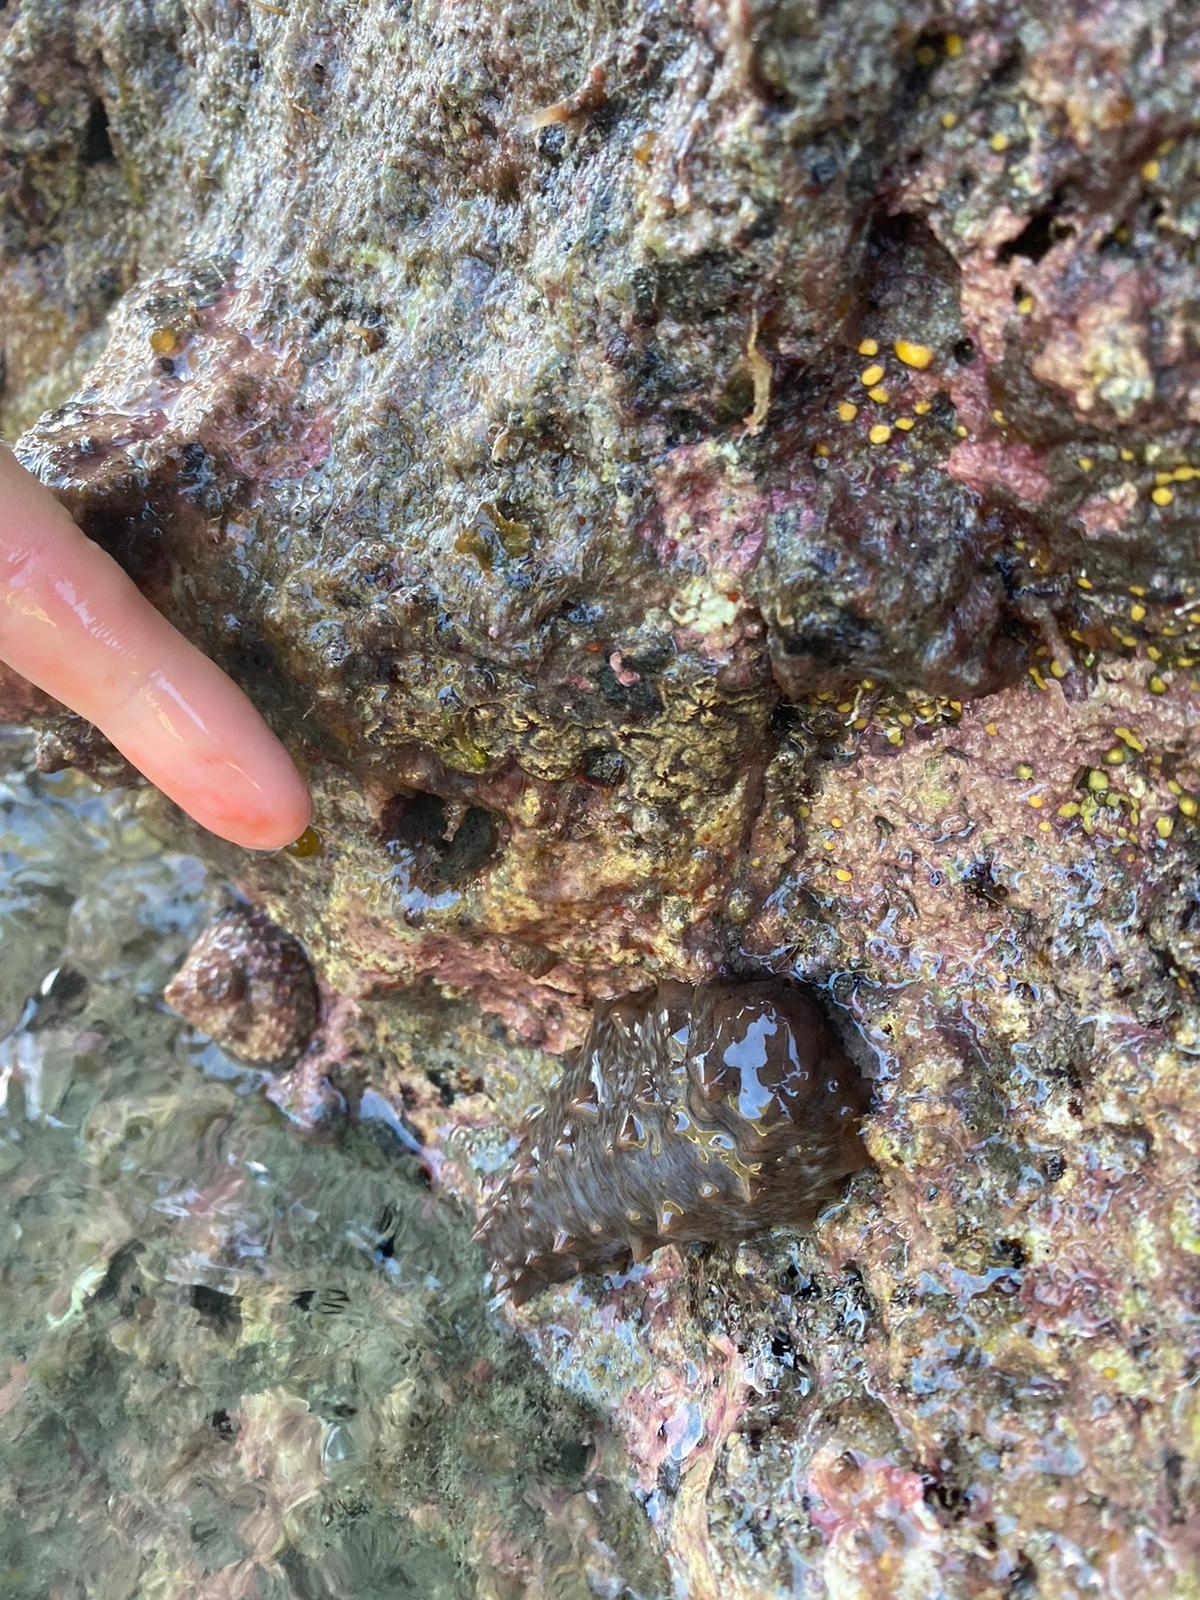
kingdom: Animalia
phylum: Echinodermata
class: Holothuroidea
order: Synallactida
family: Stichopodidae
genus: Australostichopus
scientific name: Australostichopus mollis
